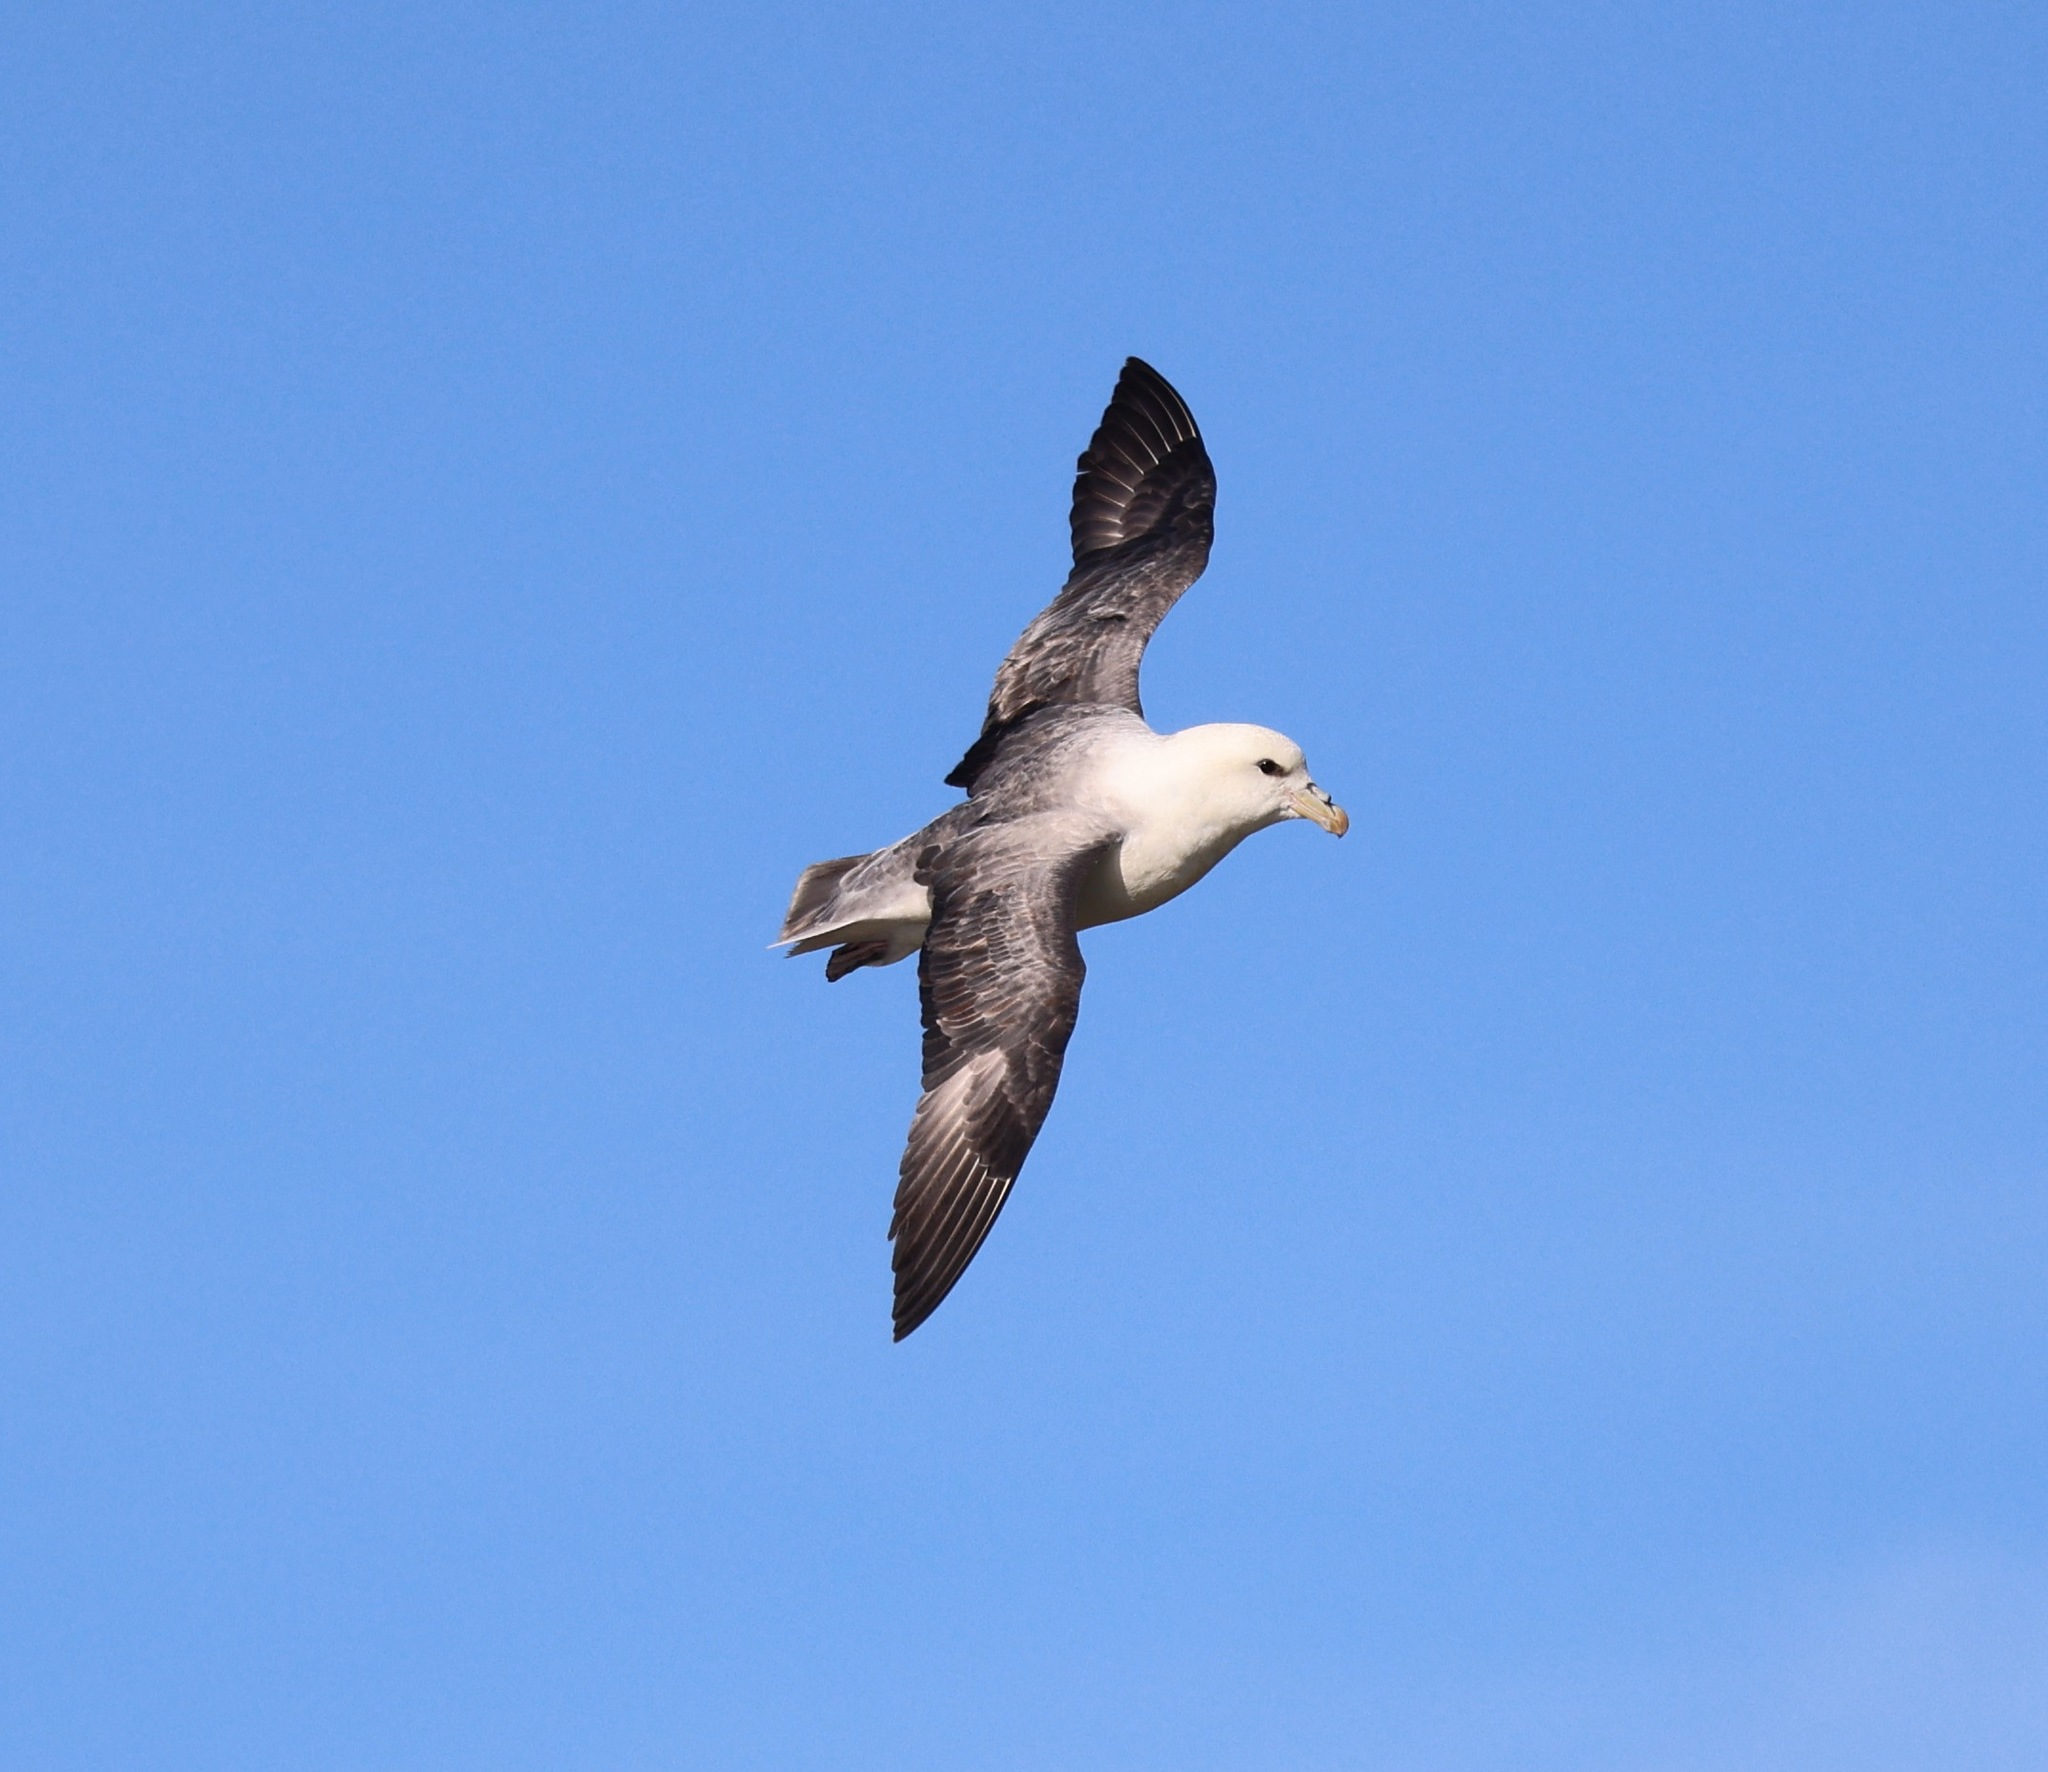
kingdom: Animalia
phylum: Chordata
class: Aves
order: Procellariiformes
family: Procellariidae
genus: Fulmarus
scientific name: Fulmarus glacialis
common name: Northern fulmar
